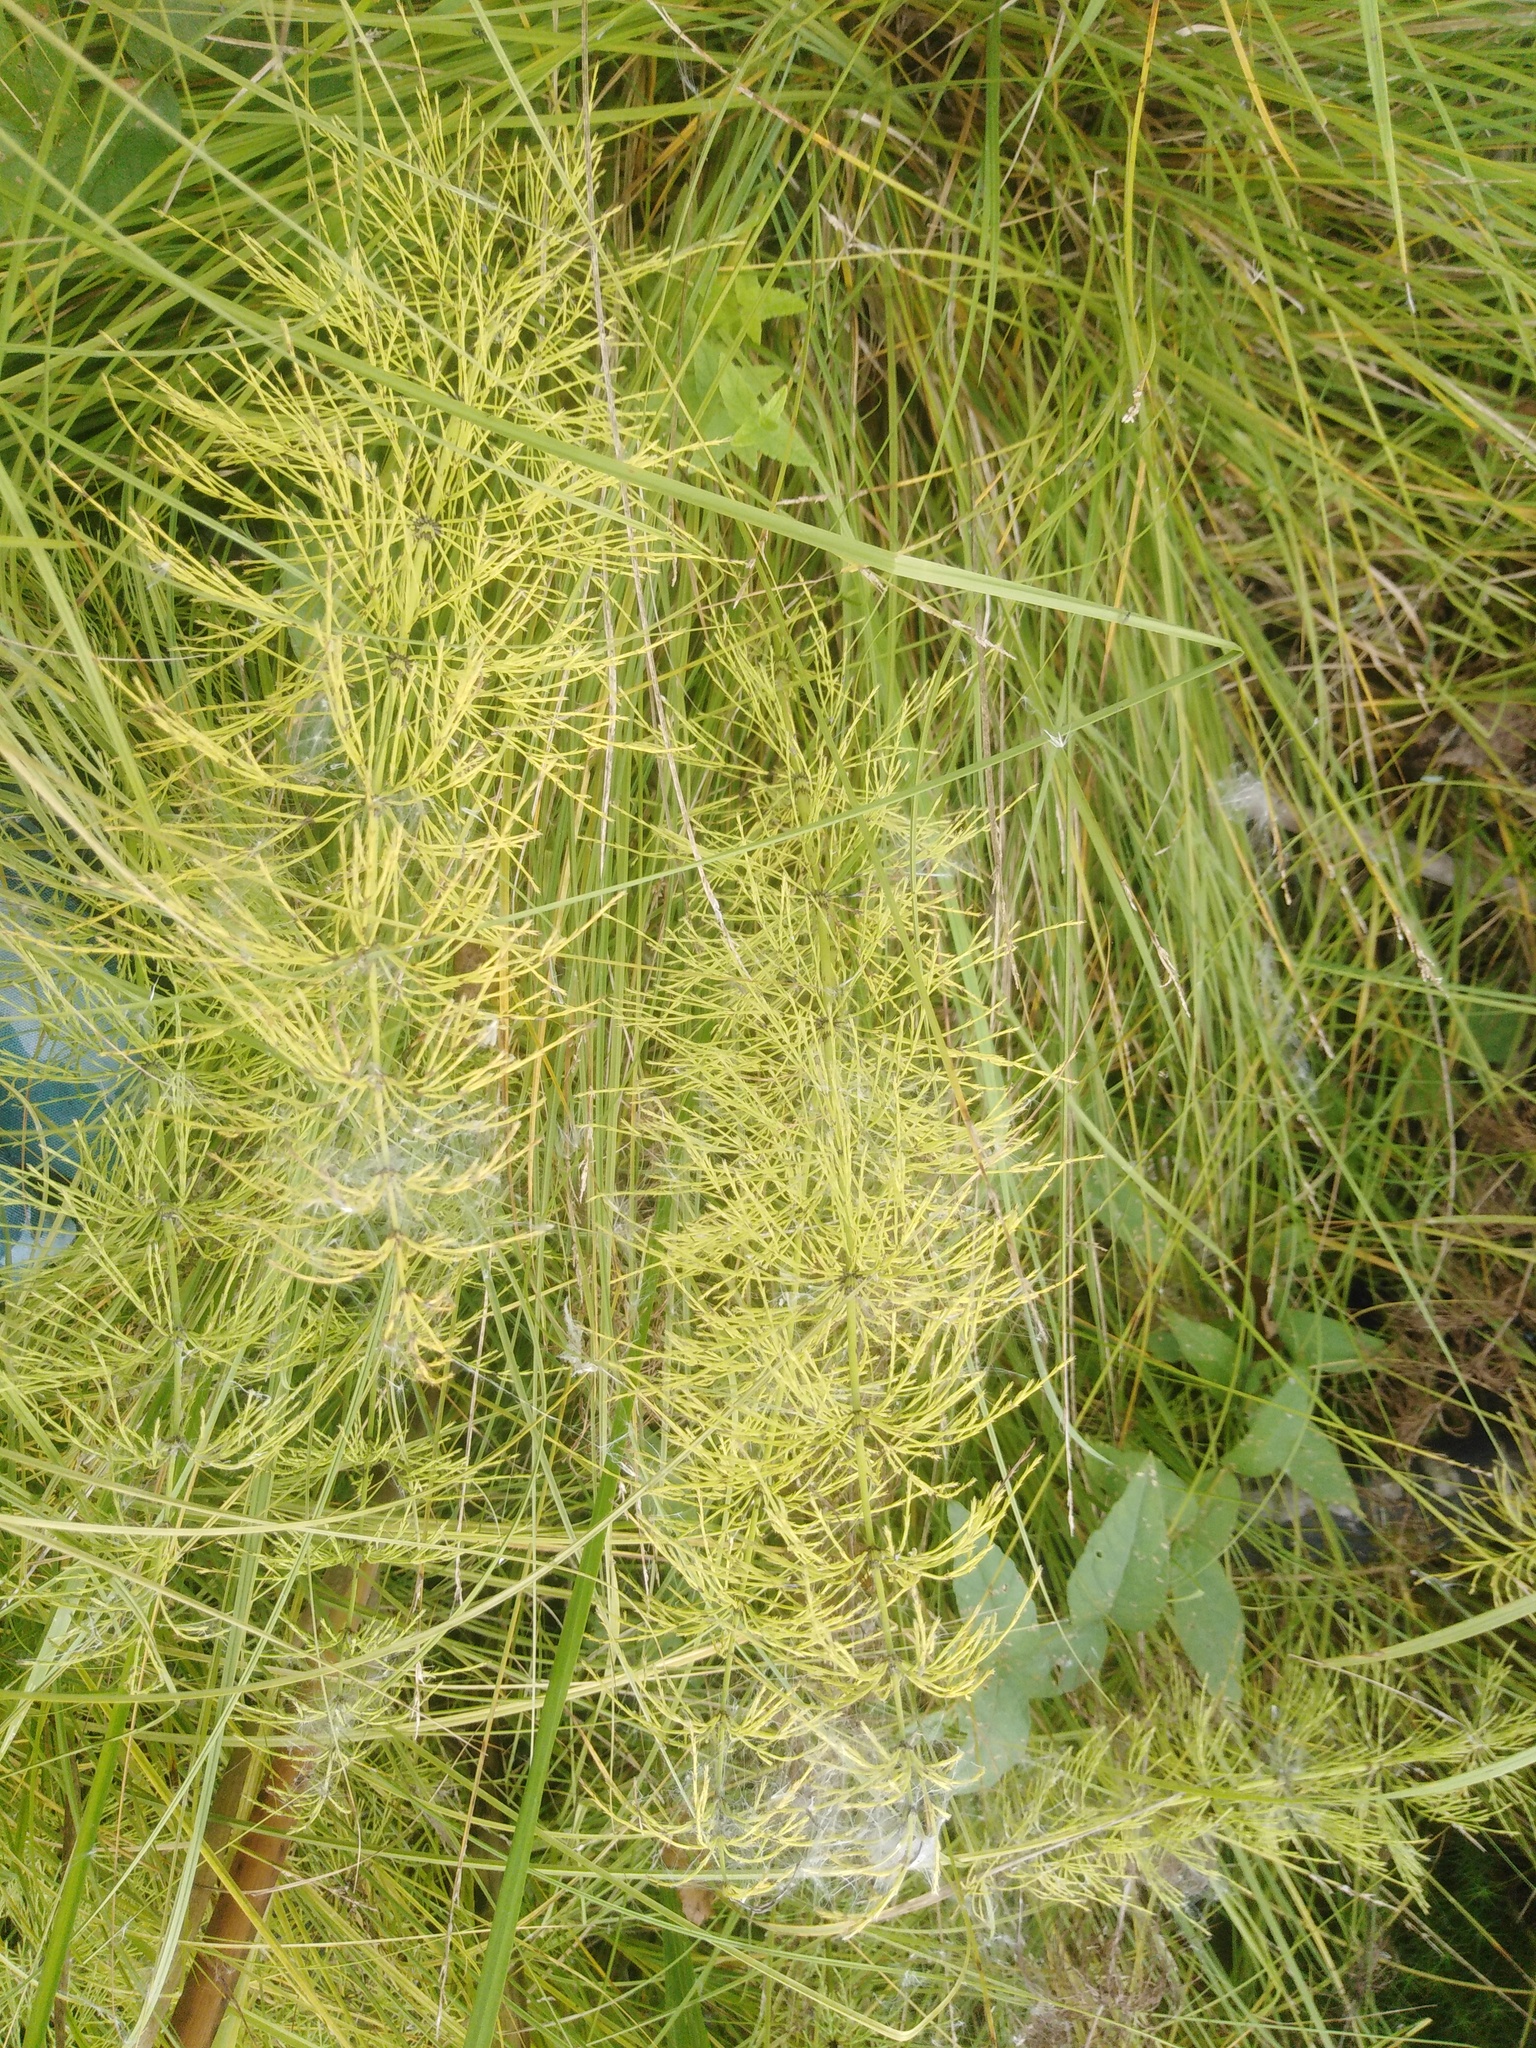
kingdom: Plantae
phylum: Tracheophyta
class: Polypodiopsida
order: Equisetales
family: Equisetaceae
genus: Equisetum
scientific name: Equisetum sylvaticum
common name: Wood horsetail
